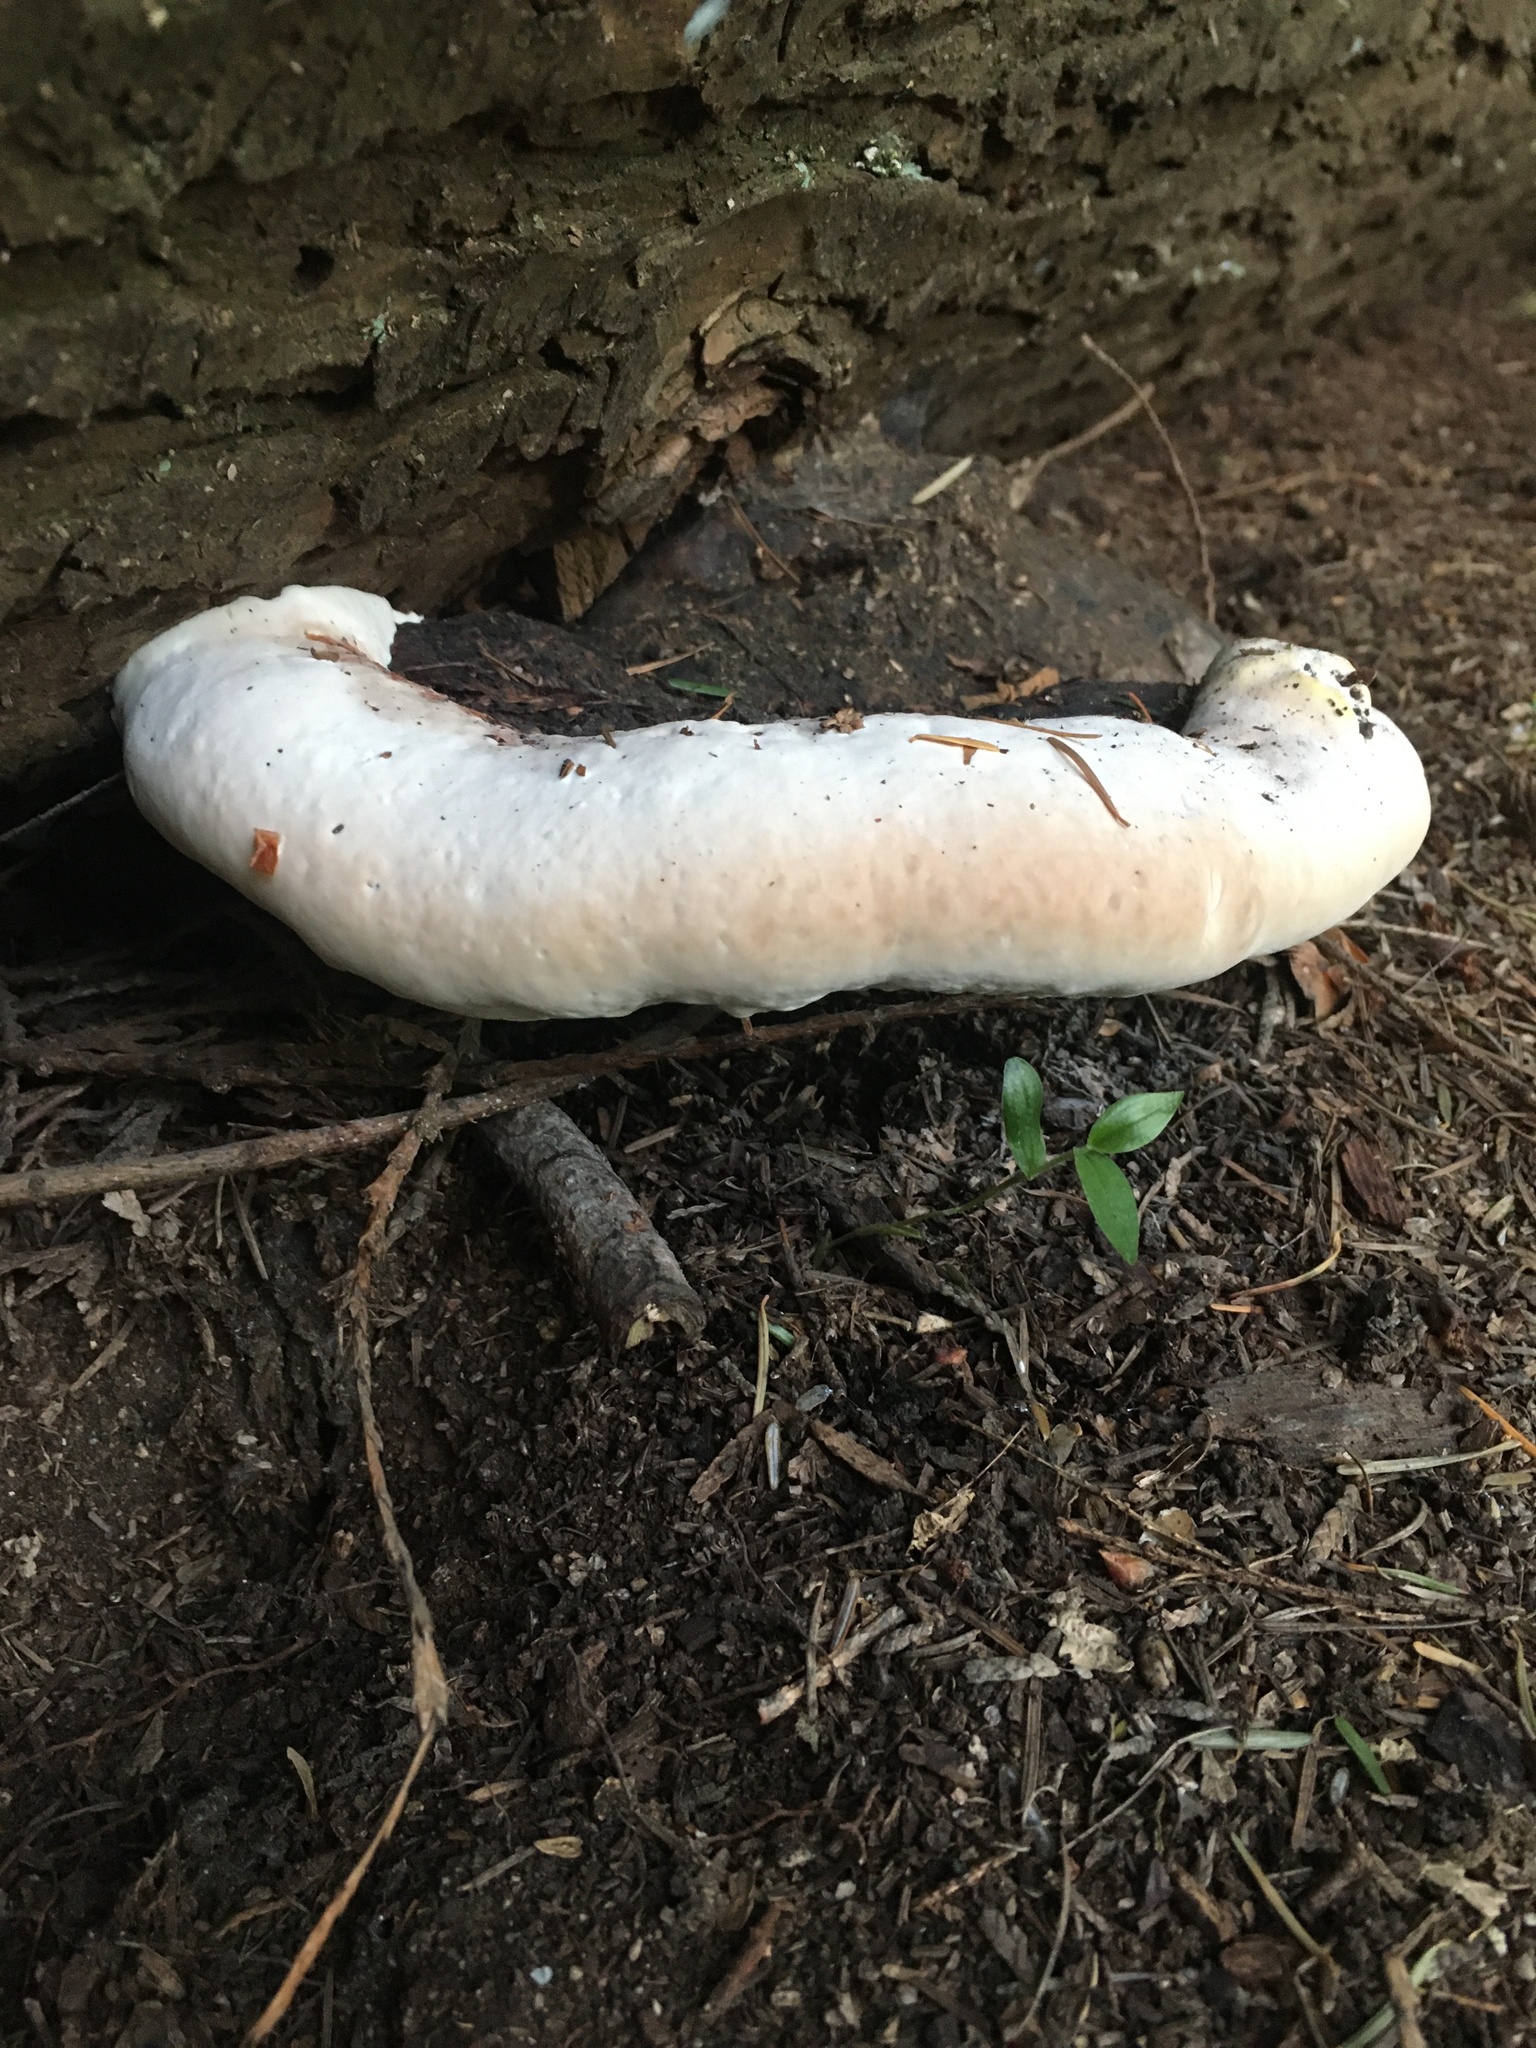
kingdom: Fungi
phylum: Basidiomycota
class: Agaricomycetes
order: Polyporales
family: Fomitopsidaceae
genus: Fomitopsis
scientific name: Fomitopsis ochracea
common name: American brown fomitopsis
